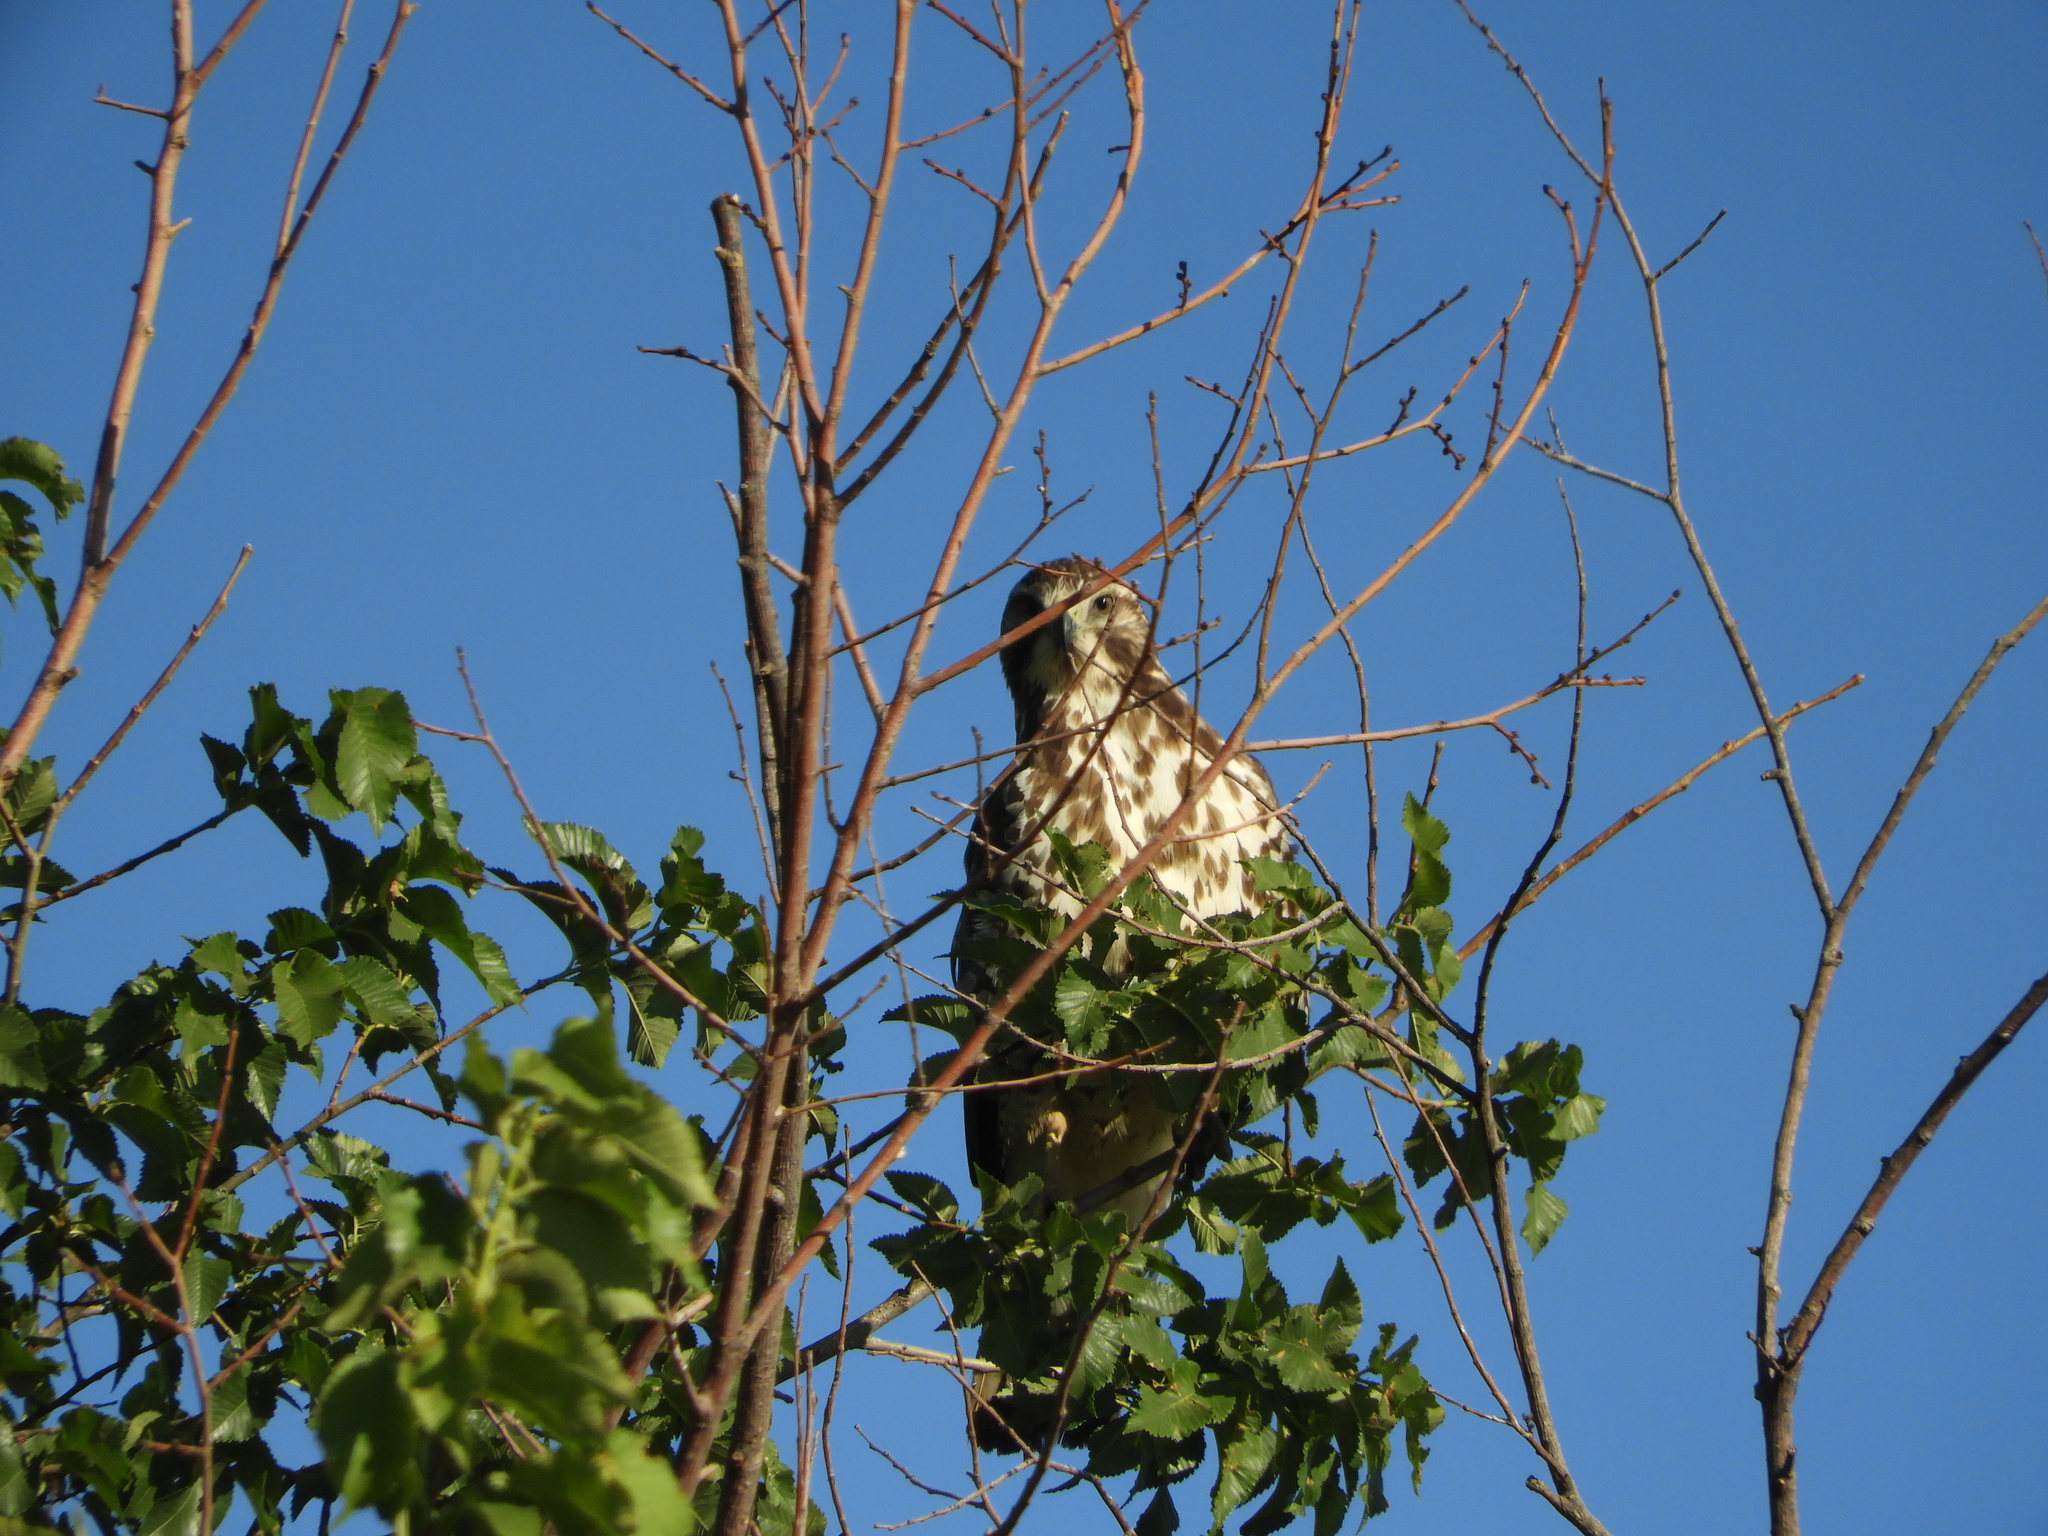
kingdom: Animalia
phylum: Chordata
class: Aves
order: Accipitriformes
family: Accipitridae
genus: Buteo
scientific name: Buteo swainsoni
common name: Swainson's hawk
